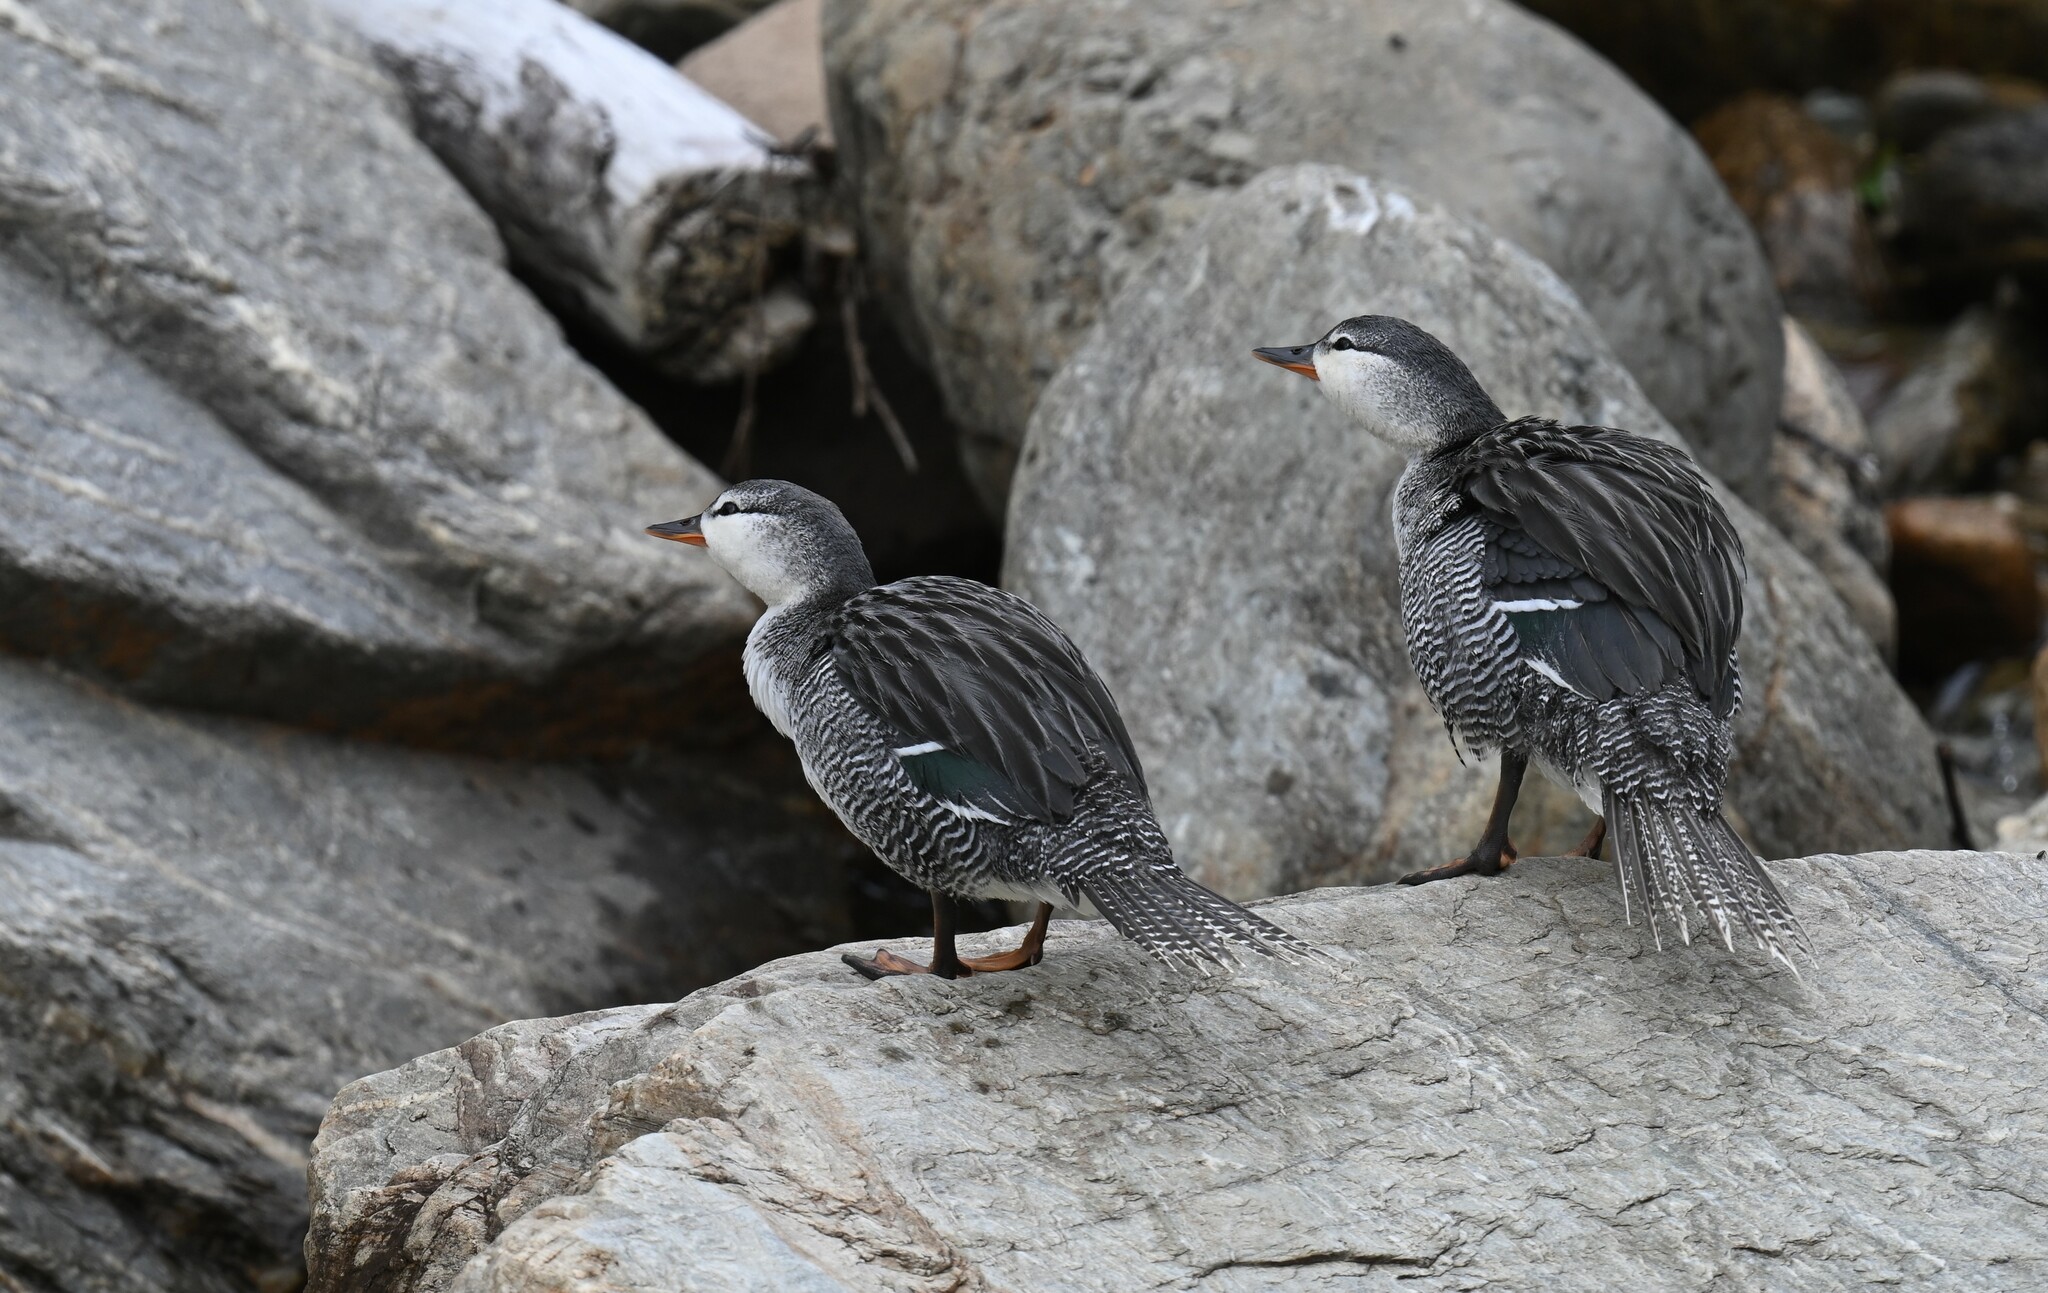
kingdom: Animalia
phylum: Chordata
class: Aves
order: Anseriformes
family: Anatidae
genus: Merganetta
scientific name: Merganetta armata
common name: Torrent duck
